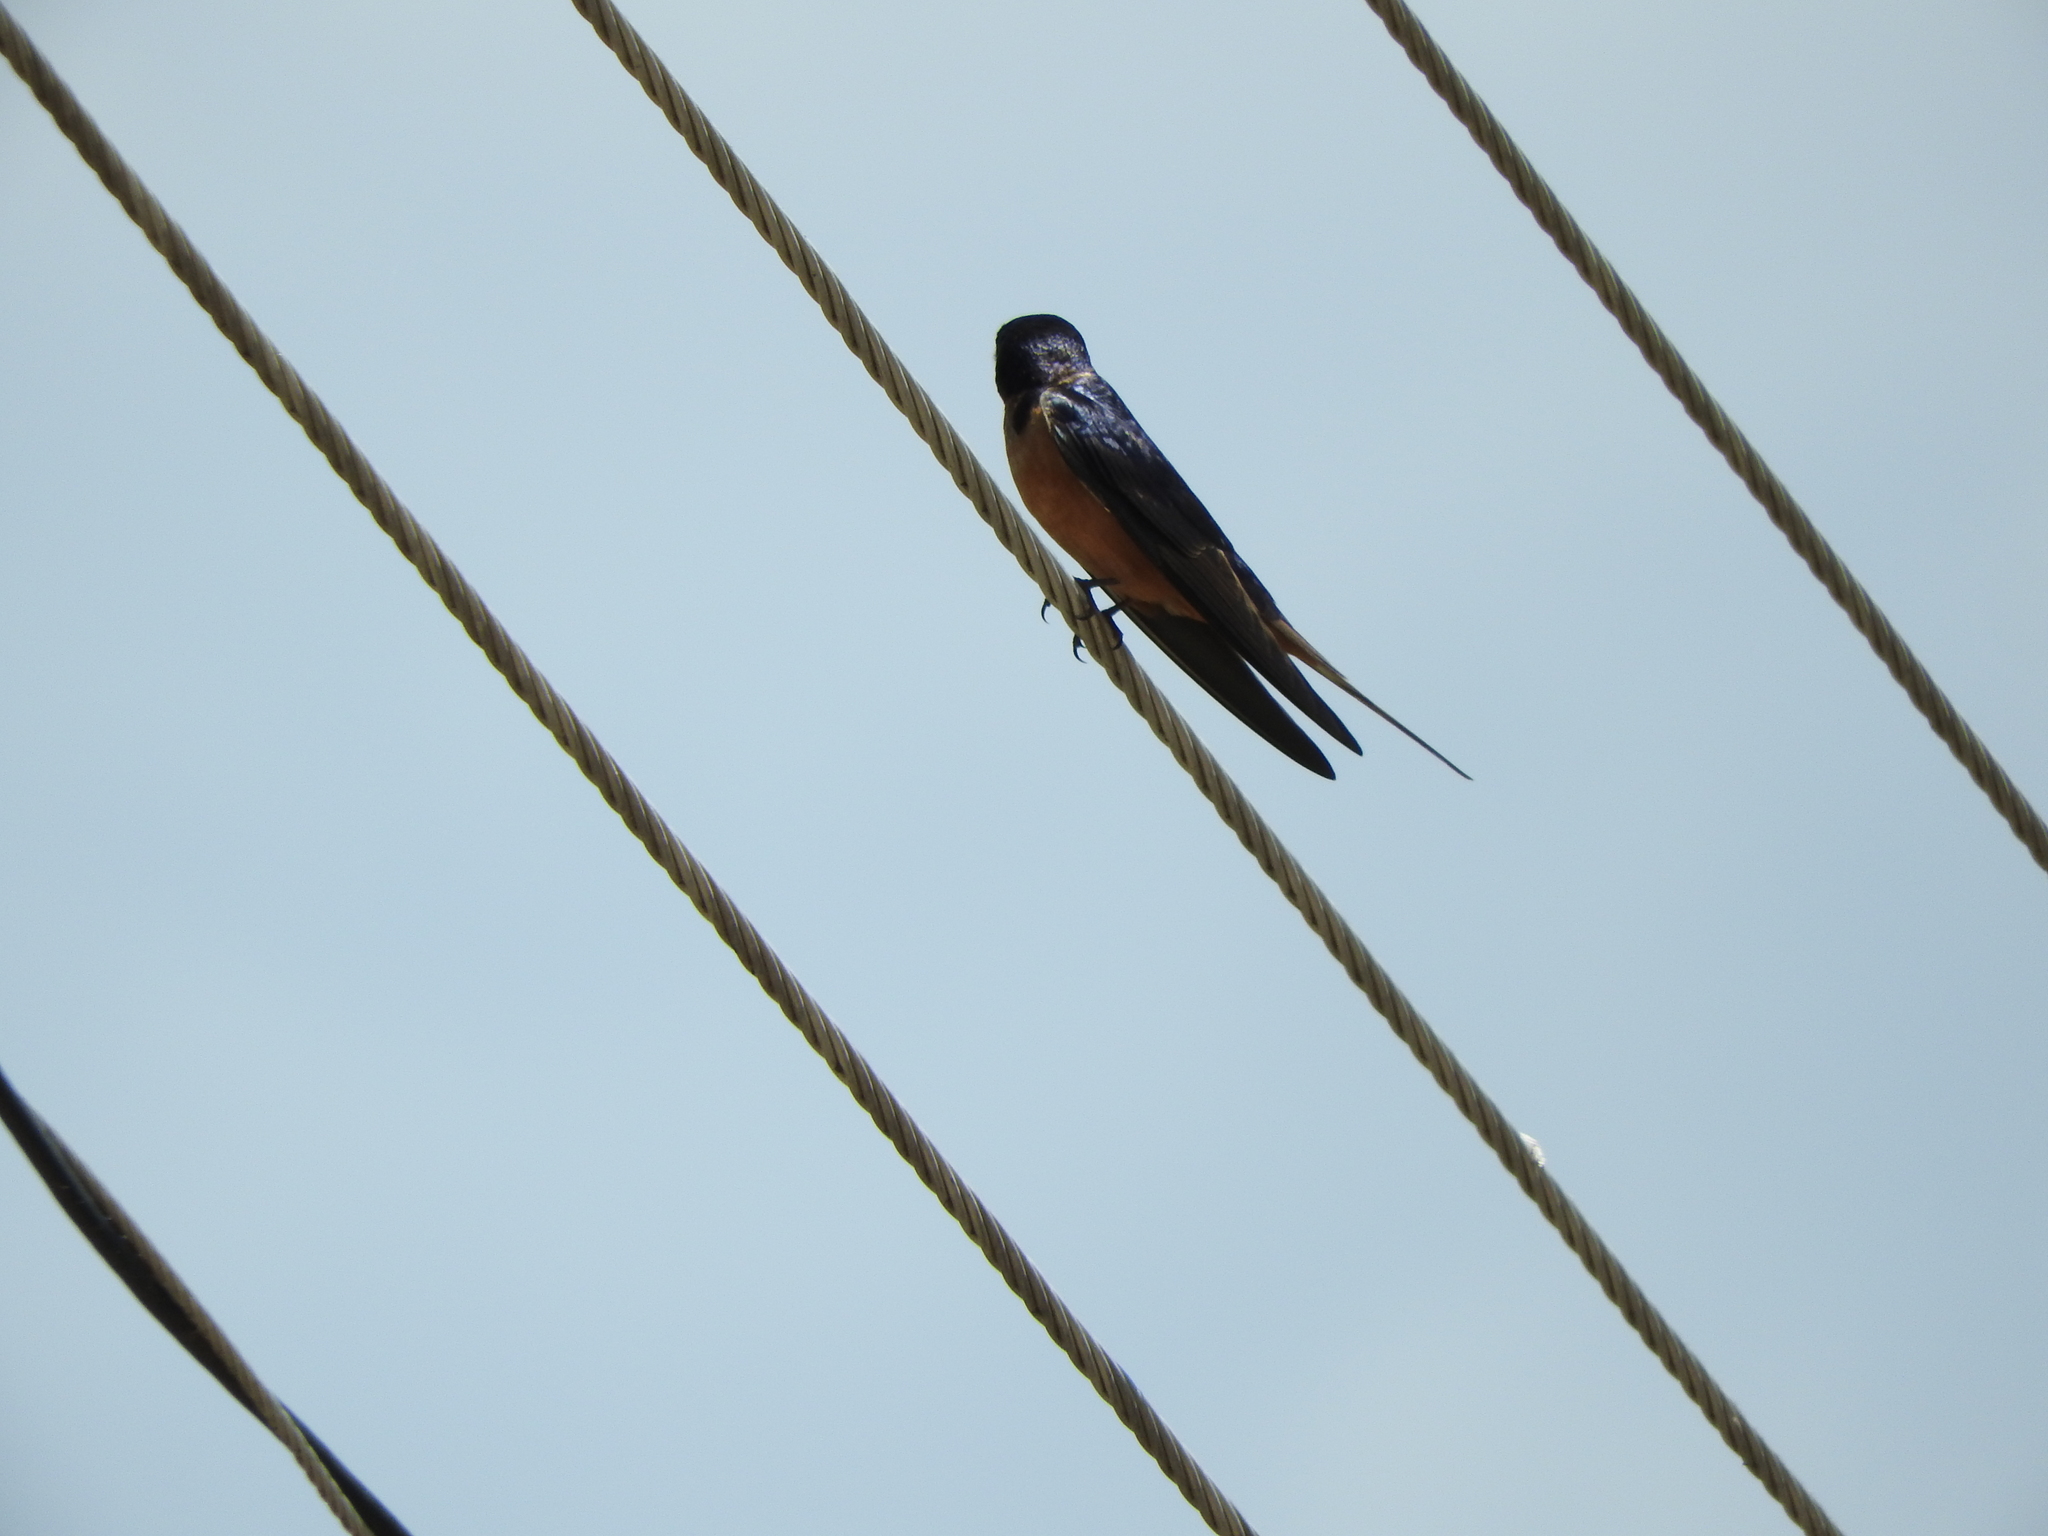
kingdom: Animalia
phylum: Chordata
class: Aves
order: Passeriformes
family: Hirundinidae
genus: Hirundo
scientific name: Hirundo rustica
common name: Barn swallow
